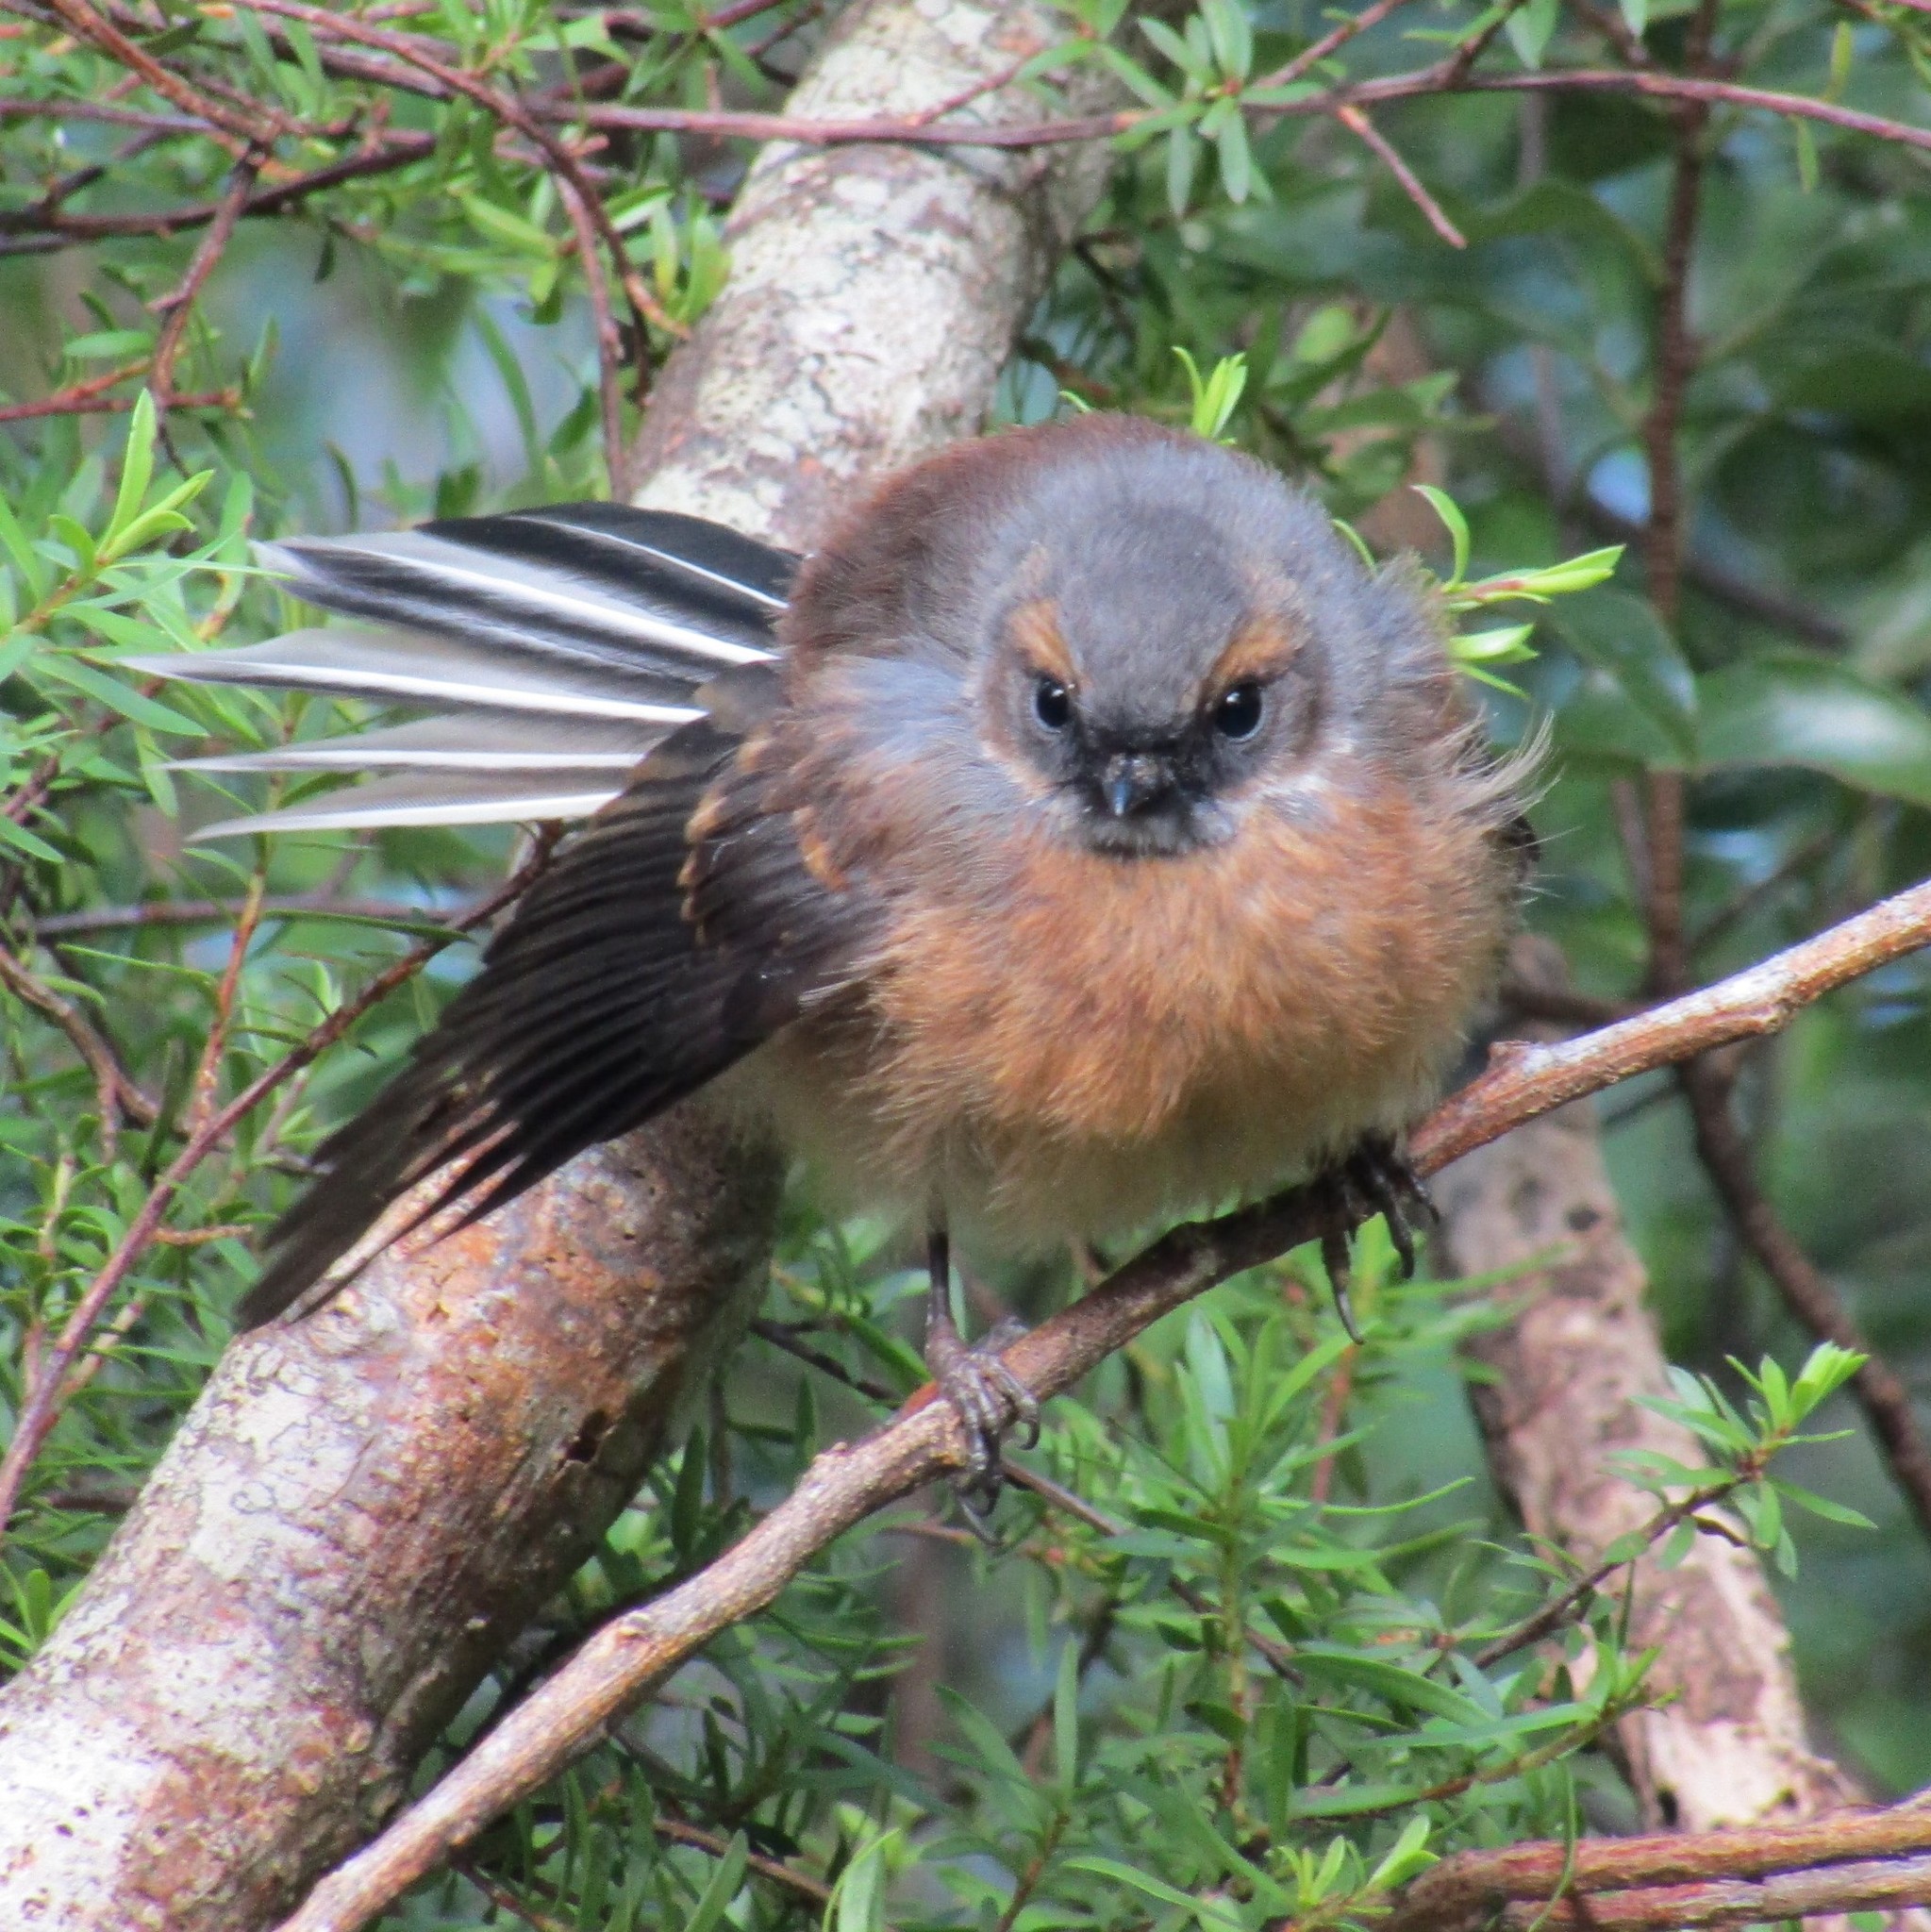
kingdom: Animalia
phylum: Chordata
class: Aves
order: Passeriformes
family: Rhipiduridae
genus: Rhipidura
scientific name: Rhipidura fuliginosa
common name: New zealand fantail
